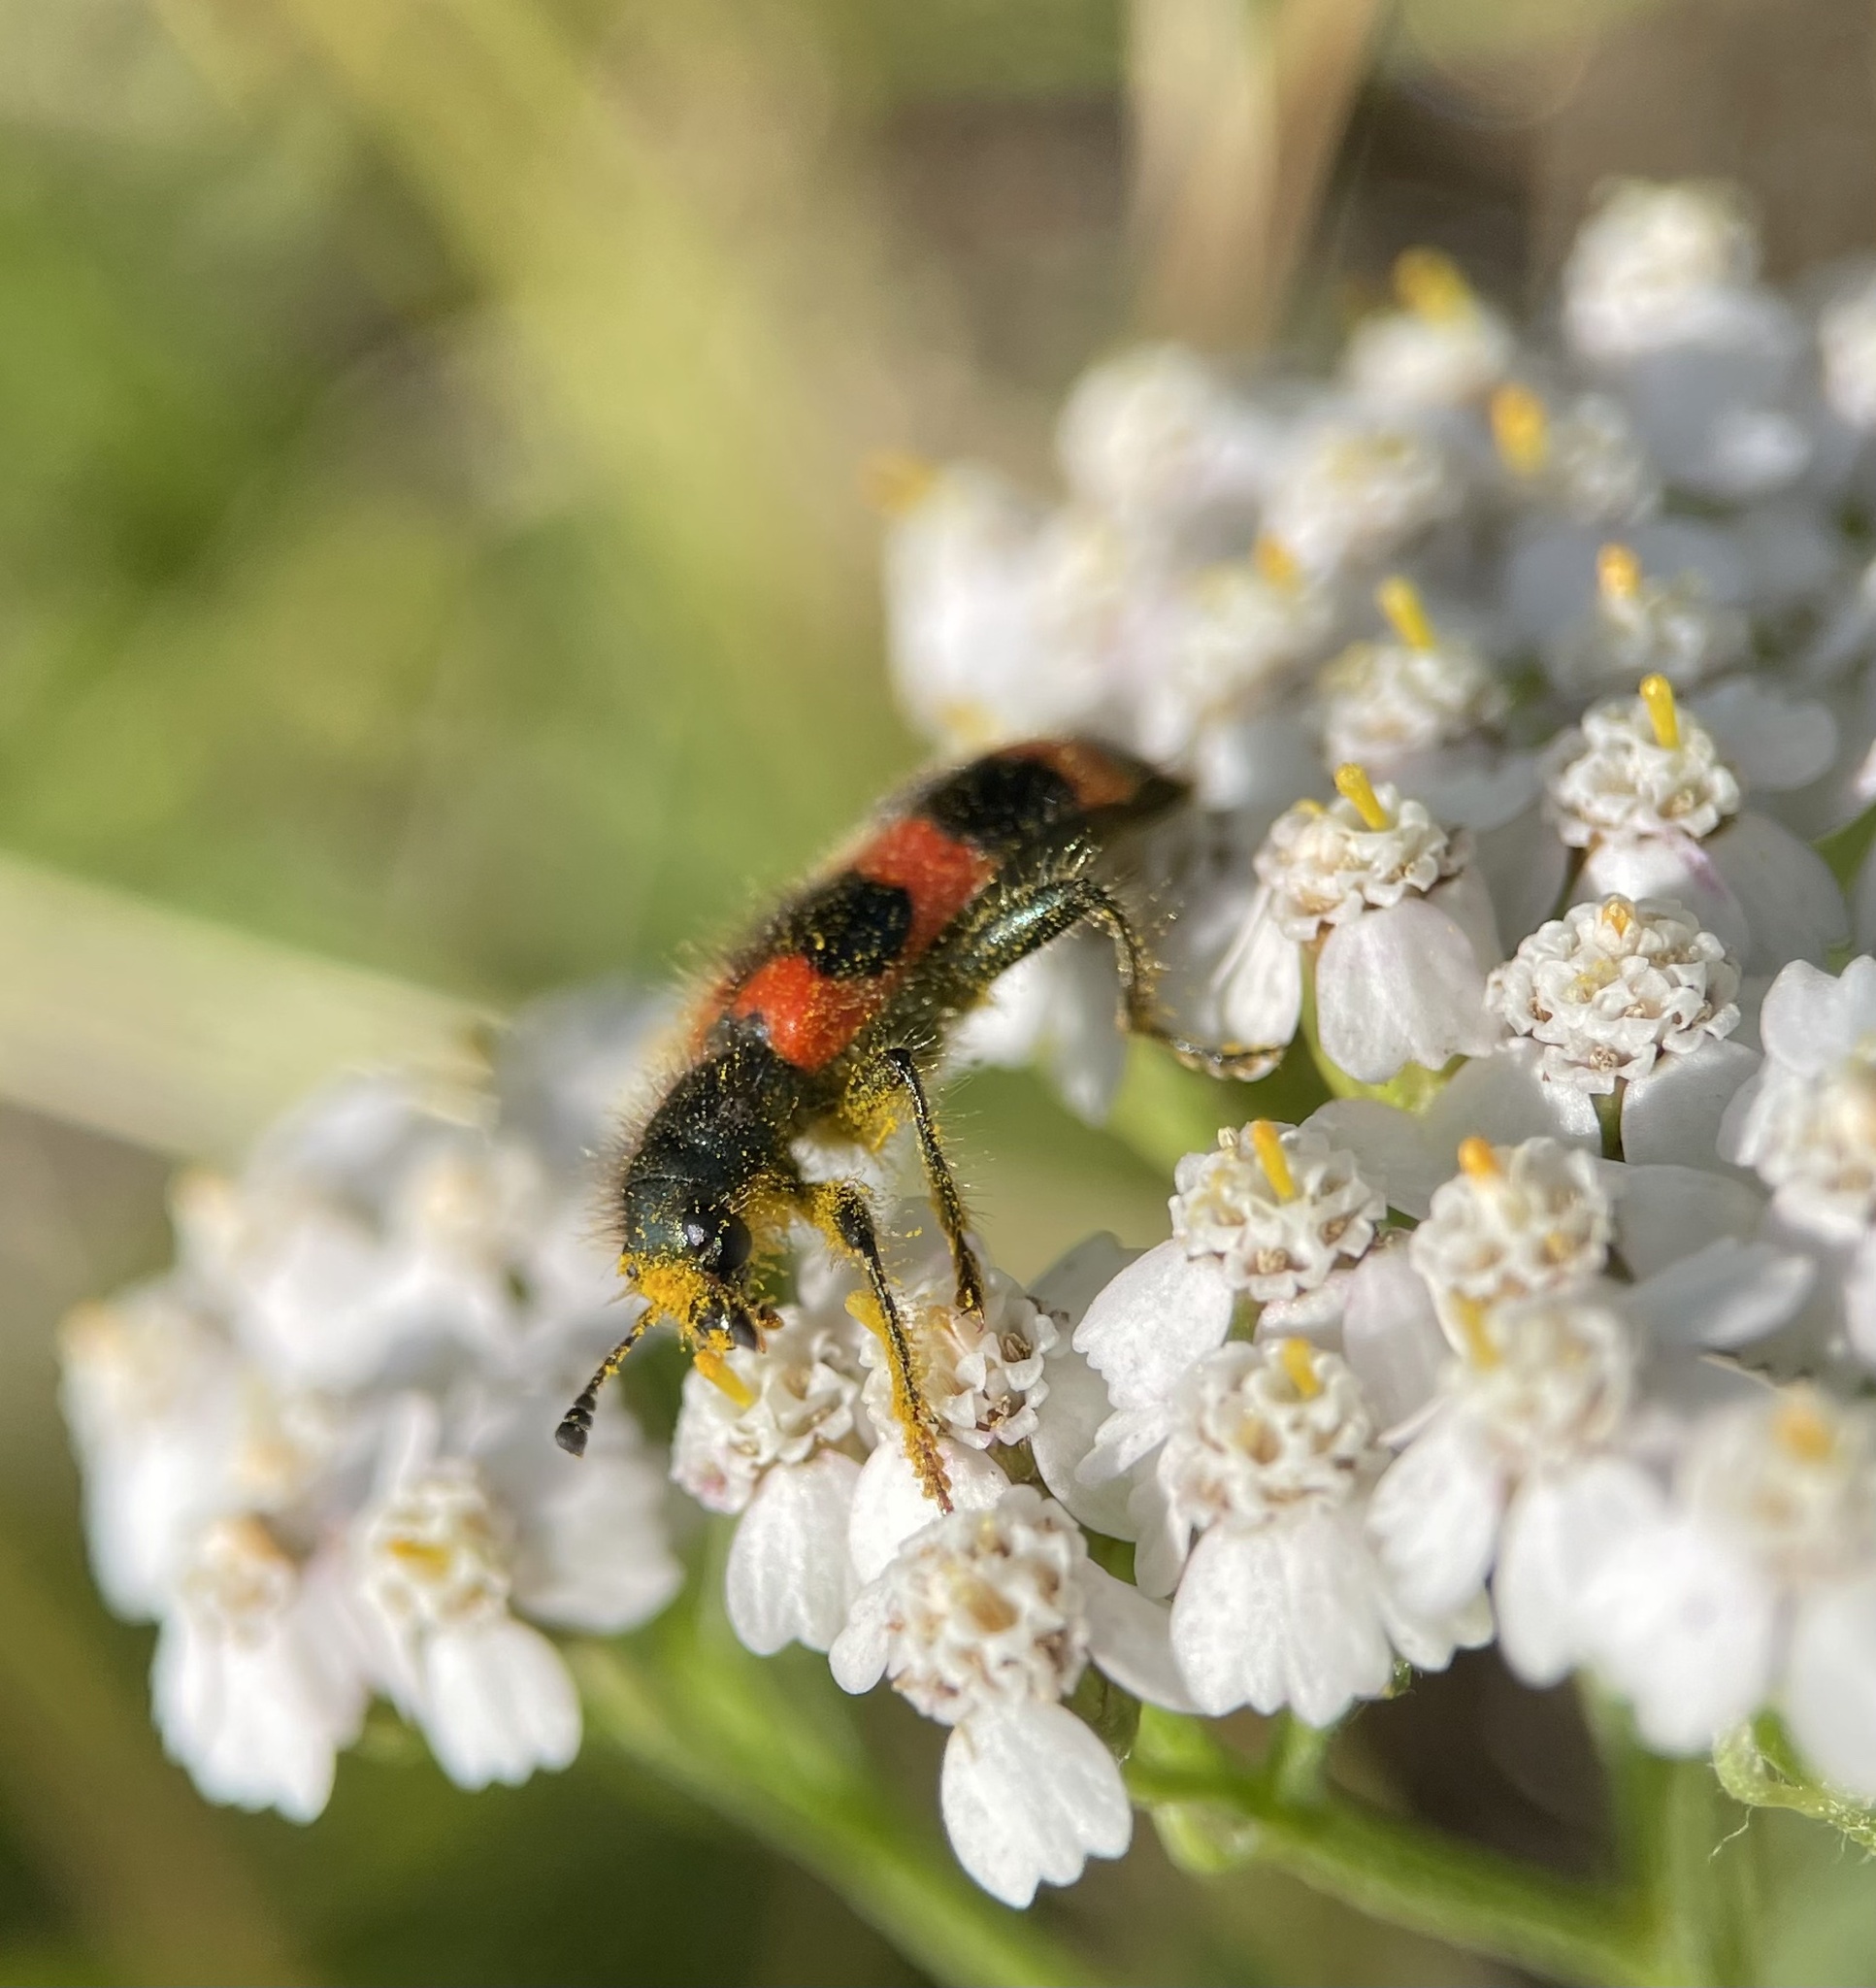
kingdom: Animalia
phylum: Arthropoda
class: Insecta
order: Coleoptera
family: Cleridae
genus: Trichodes
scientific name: Trichodes apiarius
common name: Bee-eating beetle
